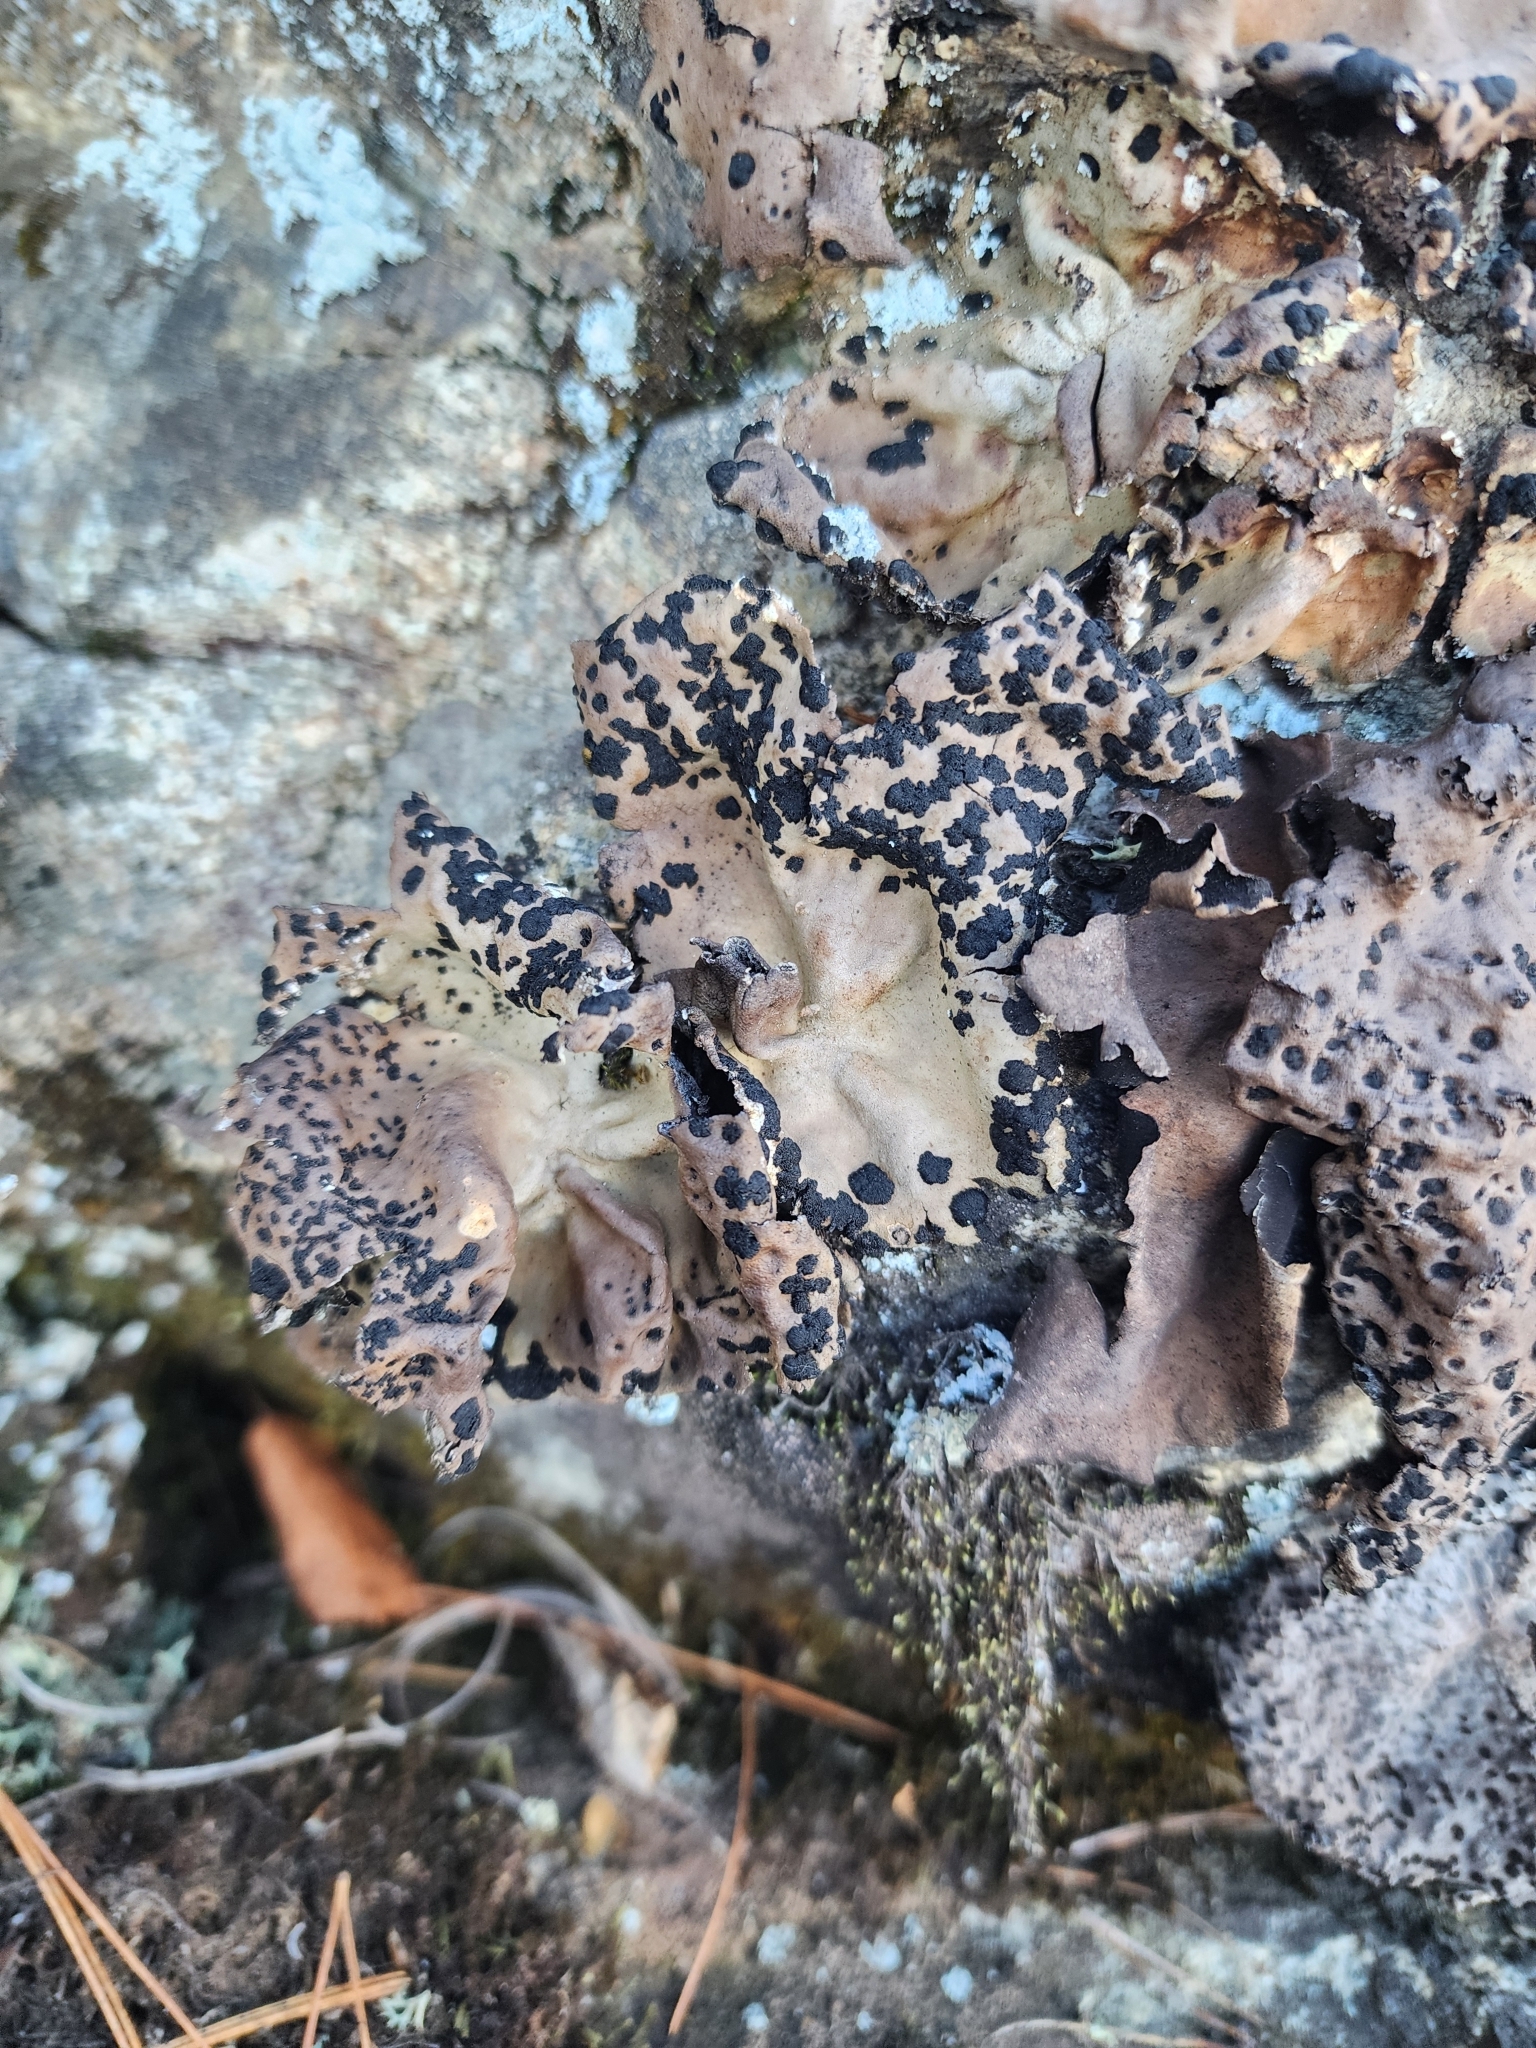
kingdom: Fungi
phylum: Ascomycota
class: Lecanoromycetes
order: Umbilicariales
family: Umbilicariaceae
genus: Umbilicaria
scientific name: Umbilicaria muhlenbergii
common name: Lesser rocktripe
